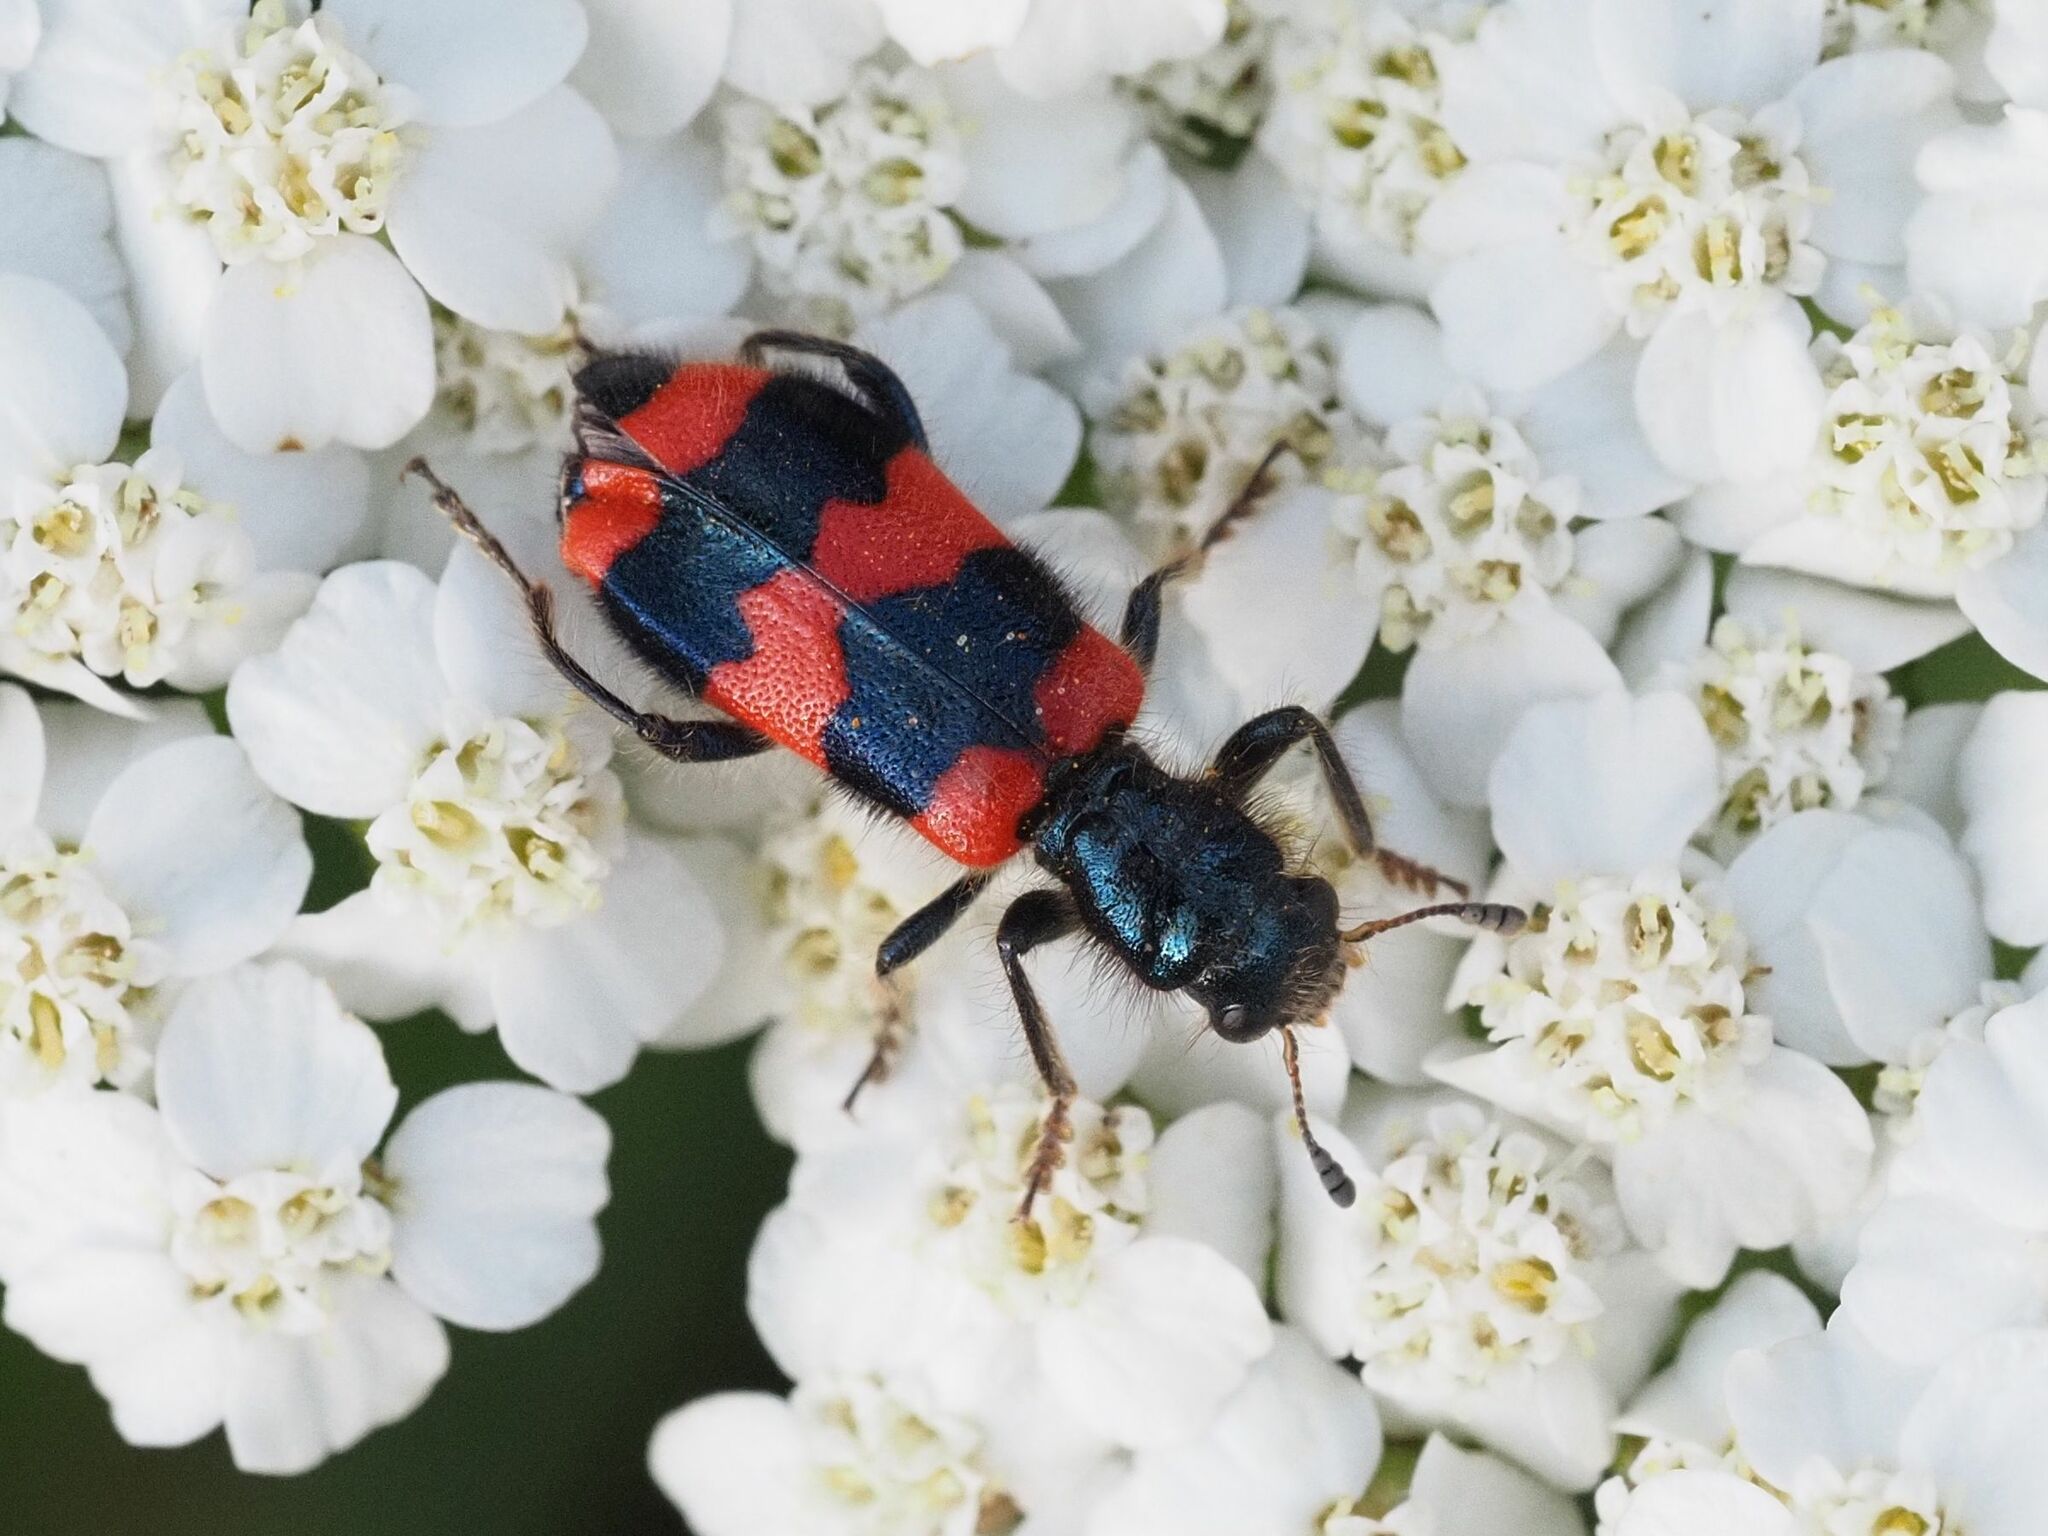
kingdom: Animalia
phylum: Arthropoda
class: Insecta
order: Coleoptera
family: Cleridae
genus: Trichodes
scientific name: Trichodes apiarius
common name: Bee-eating beetle
